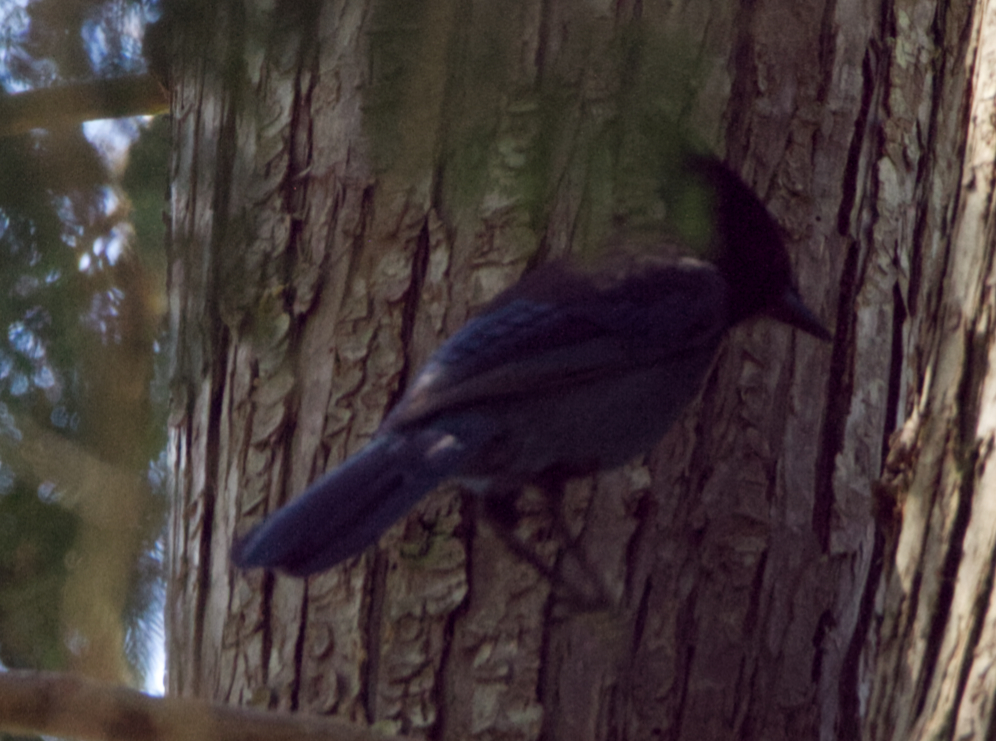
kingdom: Animalia
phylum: Chordata
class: Aves
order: Passeriformes
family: Corvidae
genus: Cyanocitta
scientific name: Cyanocitta stelleri
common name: Steller's jay
